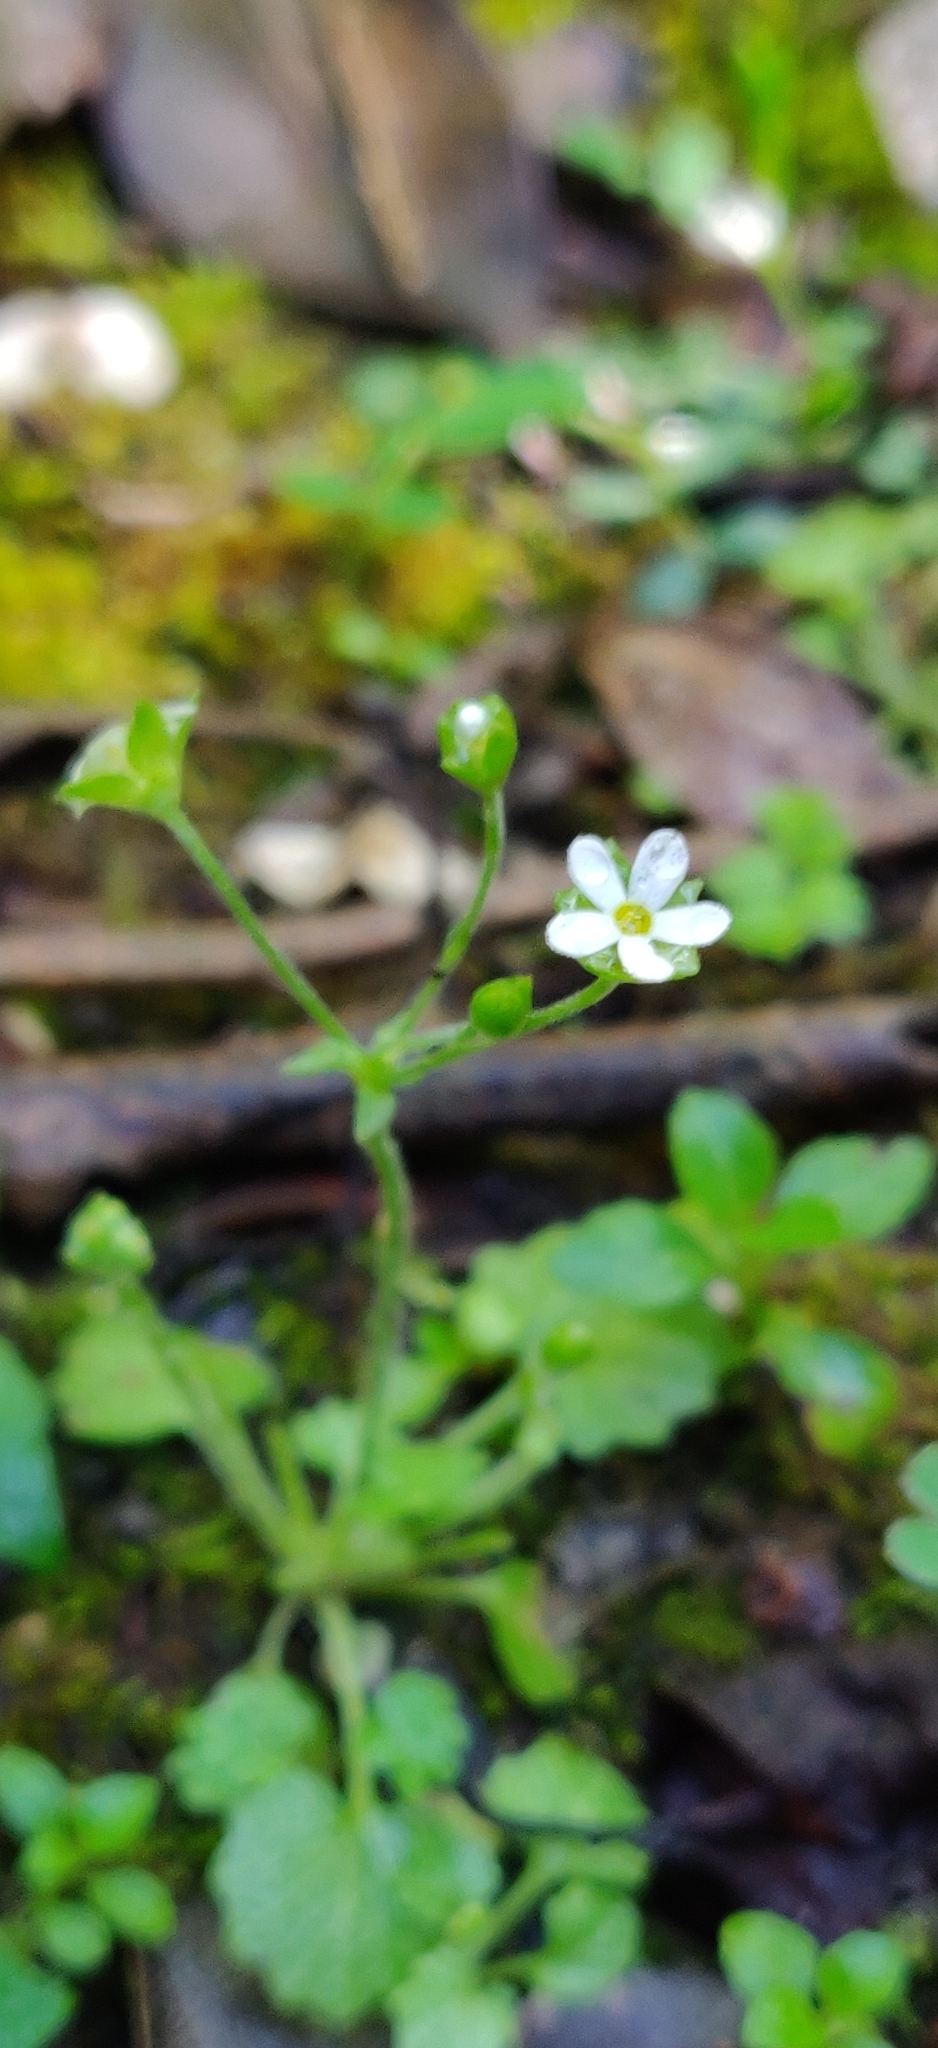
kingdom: Plantae
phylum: Tracheophyta
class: Magnoliopsida
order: Ericales
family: Primulaceae
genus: Androsace
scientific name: Androsace umbellata
